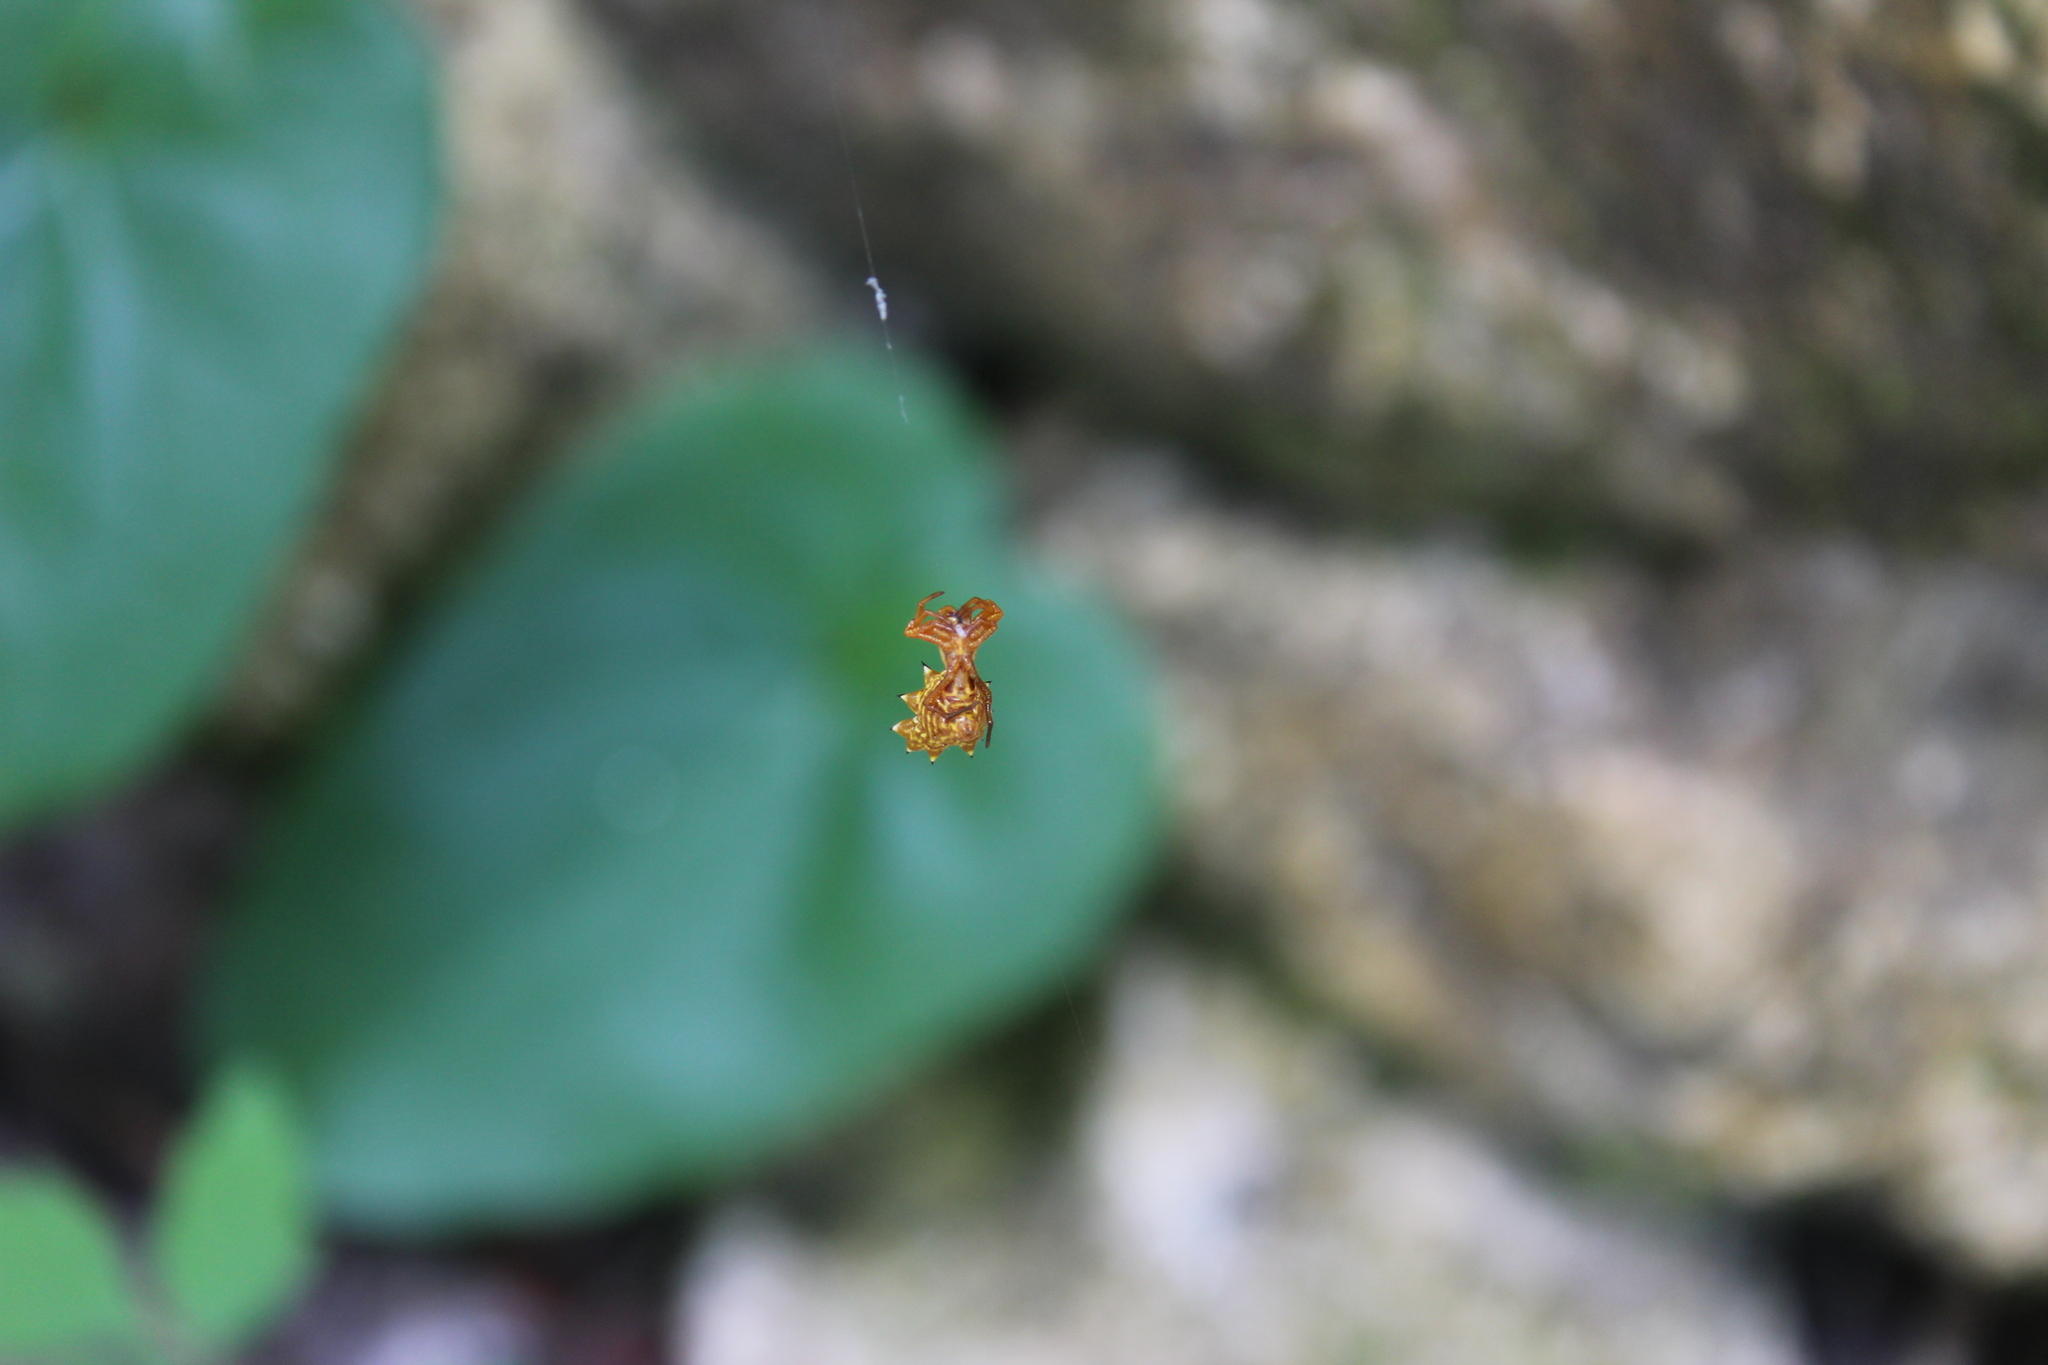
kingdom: Animalia
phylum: Arthropoda
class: Arachnida
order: Araneae
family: Araneidae
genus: Micrathena
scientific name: Micrathena gracilis
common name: Orb weavers
